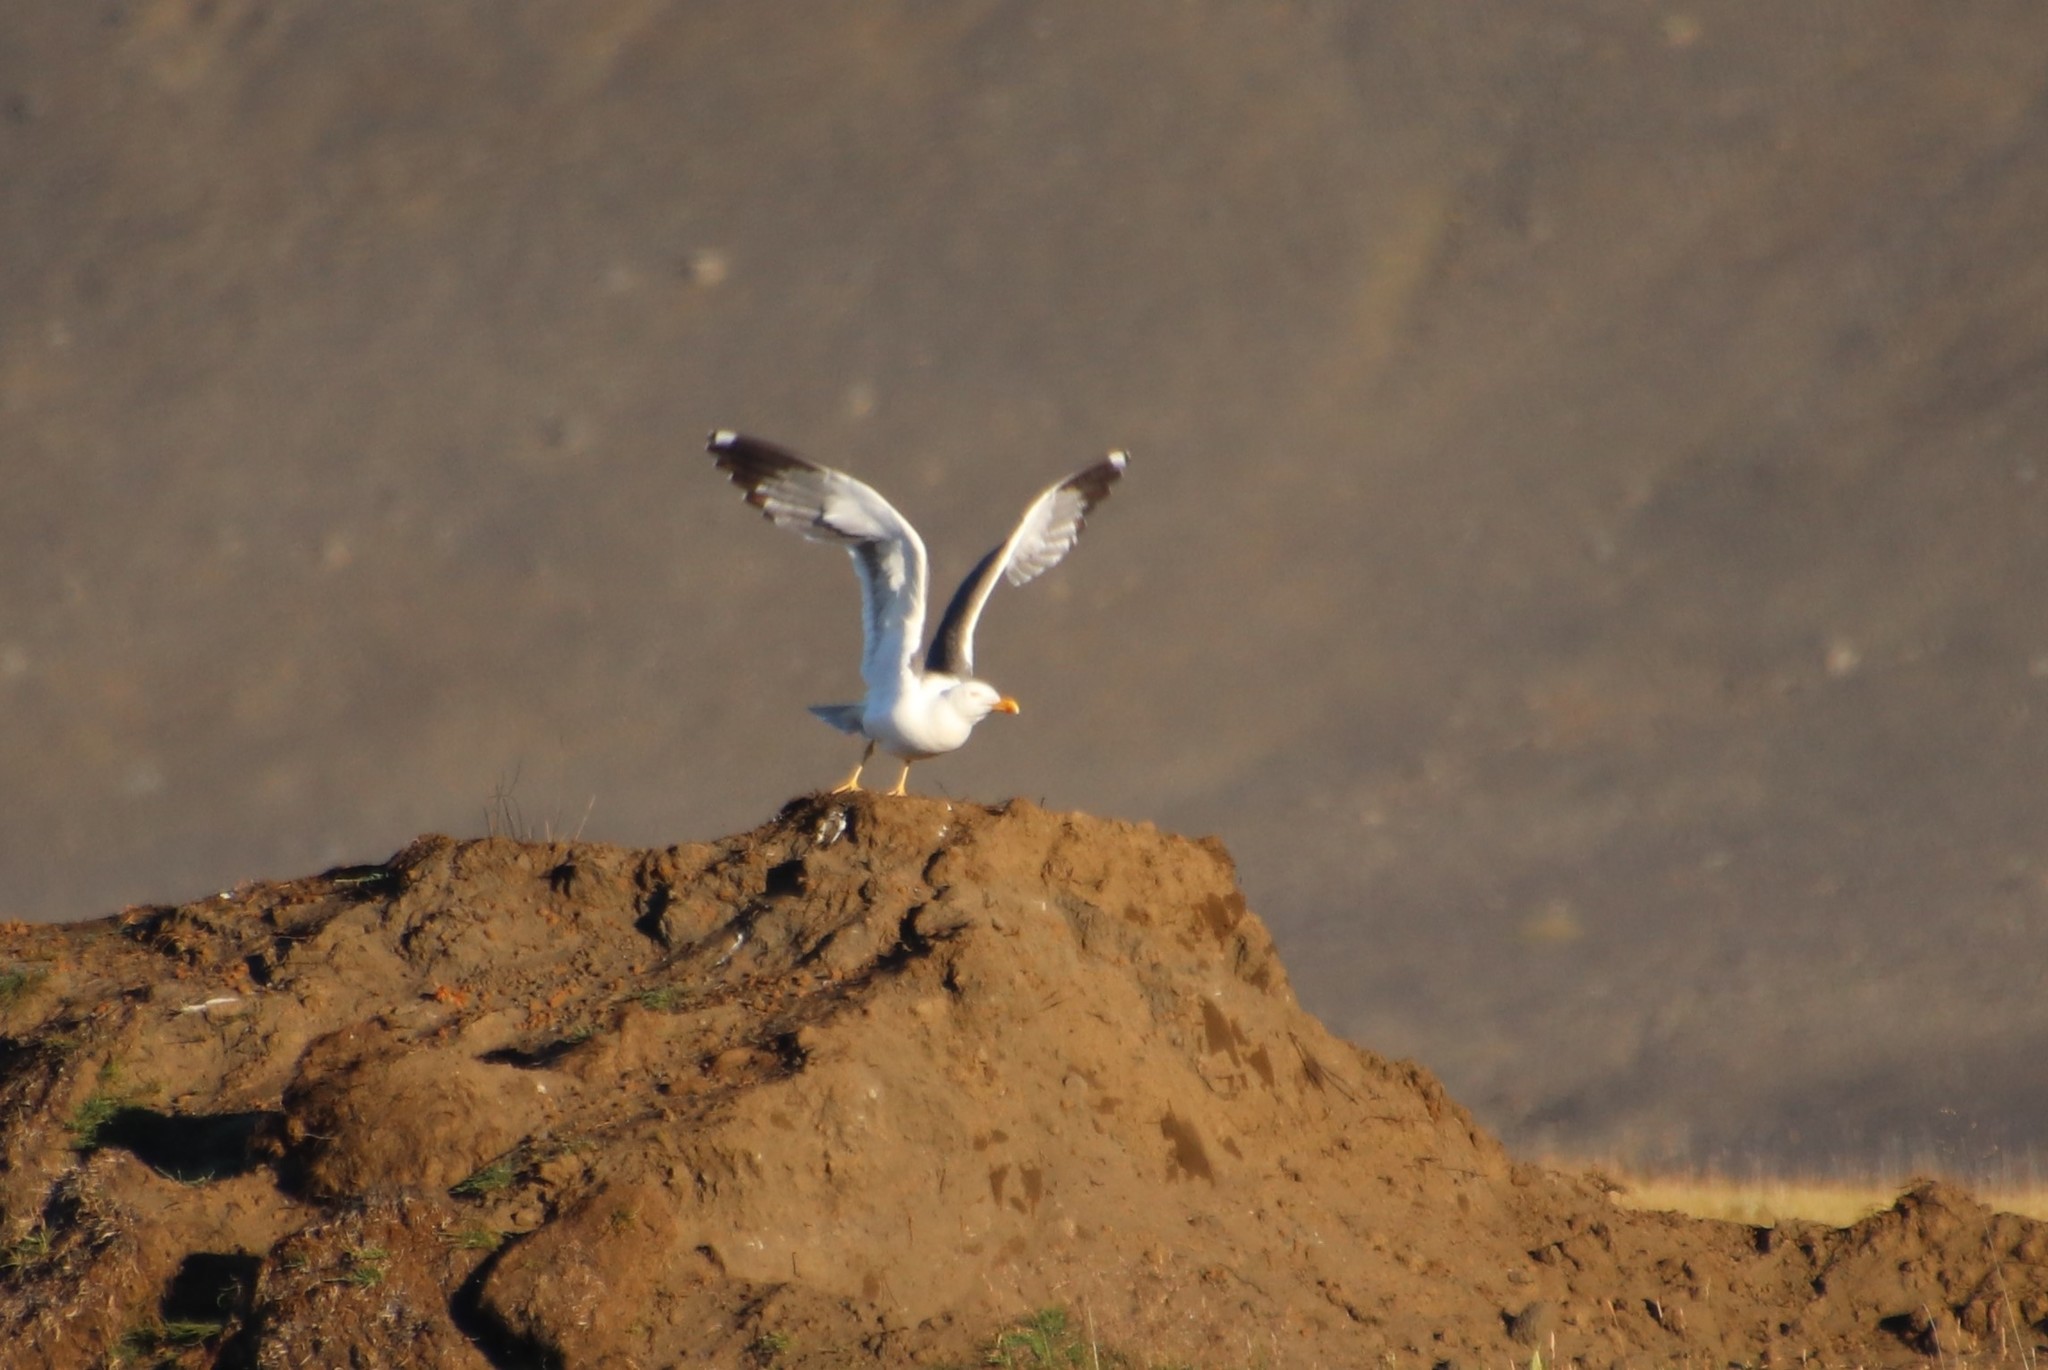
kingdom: Animalia
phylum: Chordata
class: Aves
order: Charadriiformes
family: Laridae
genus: Larus
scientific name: Larus fuscus
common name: Lesser black-backed gull
